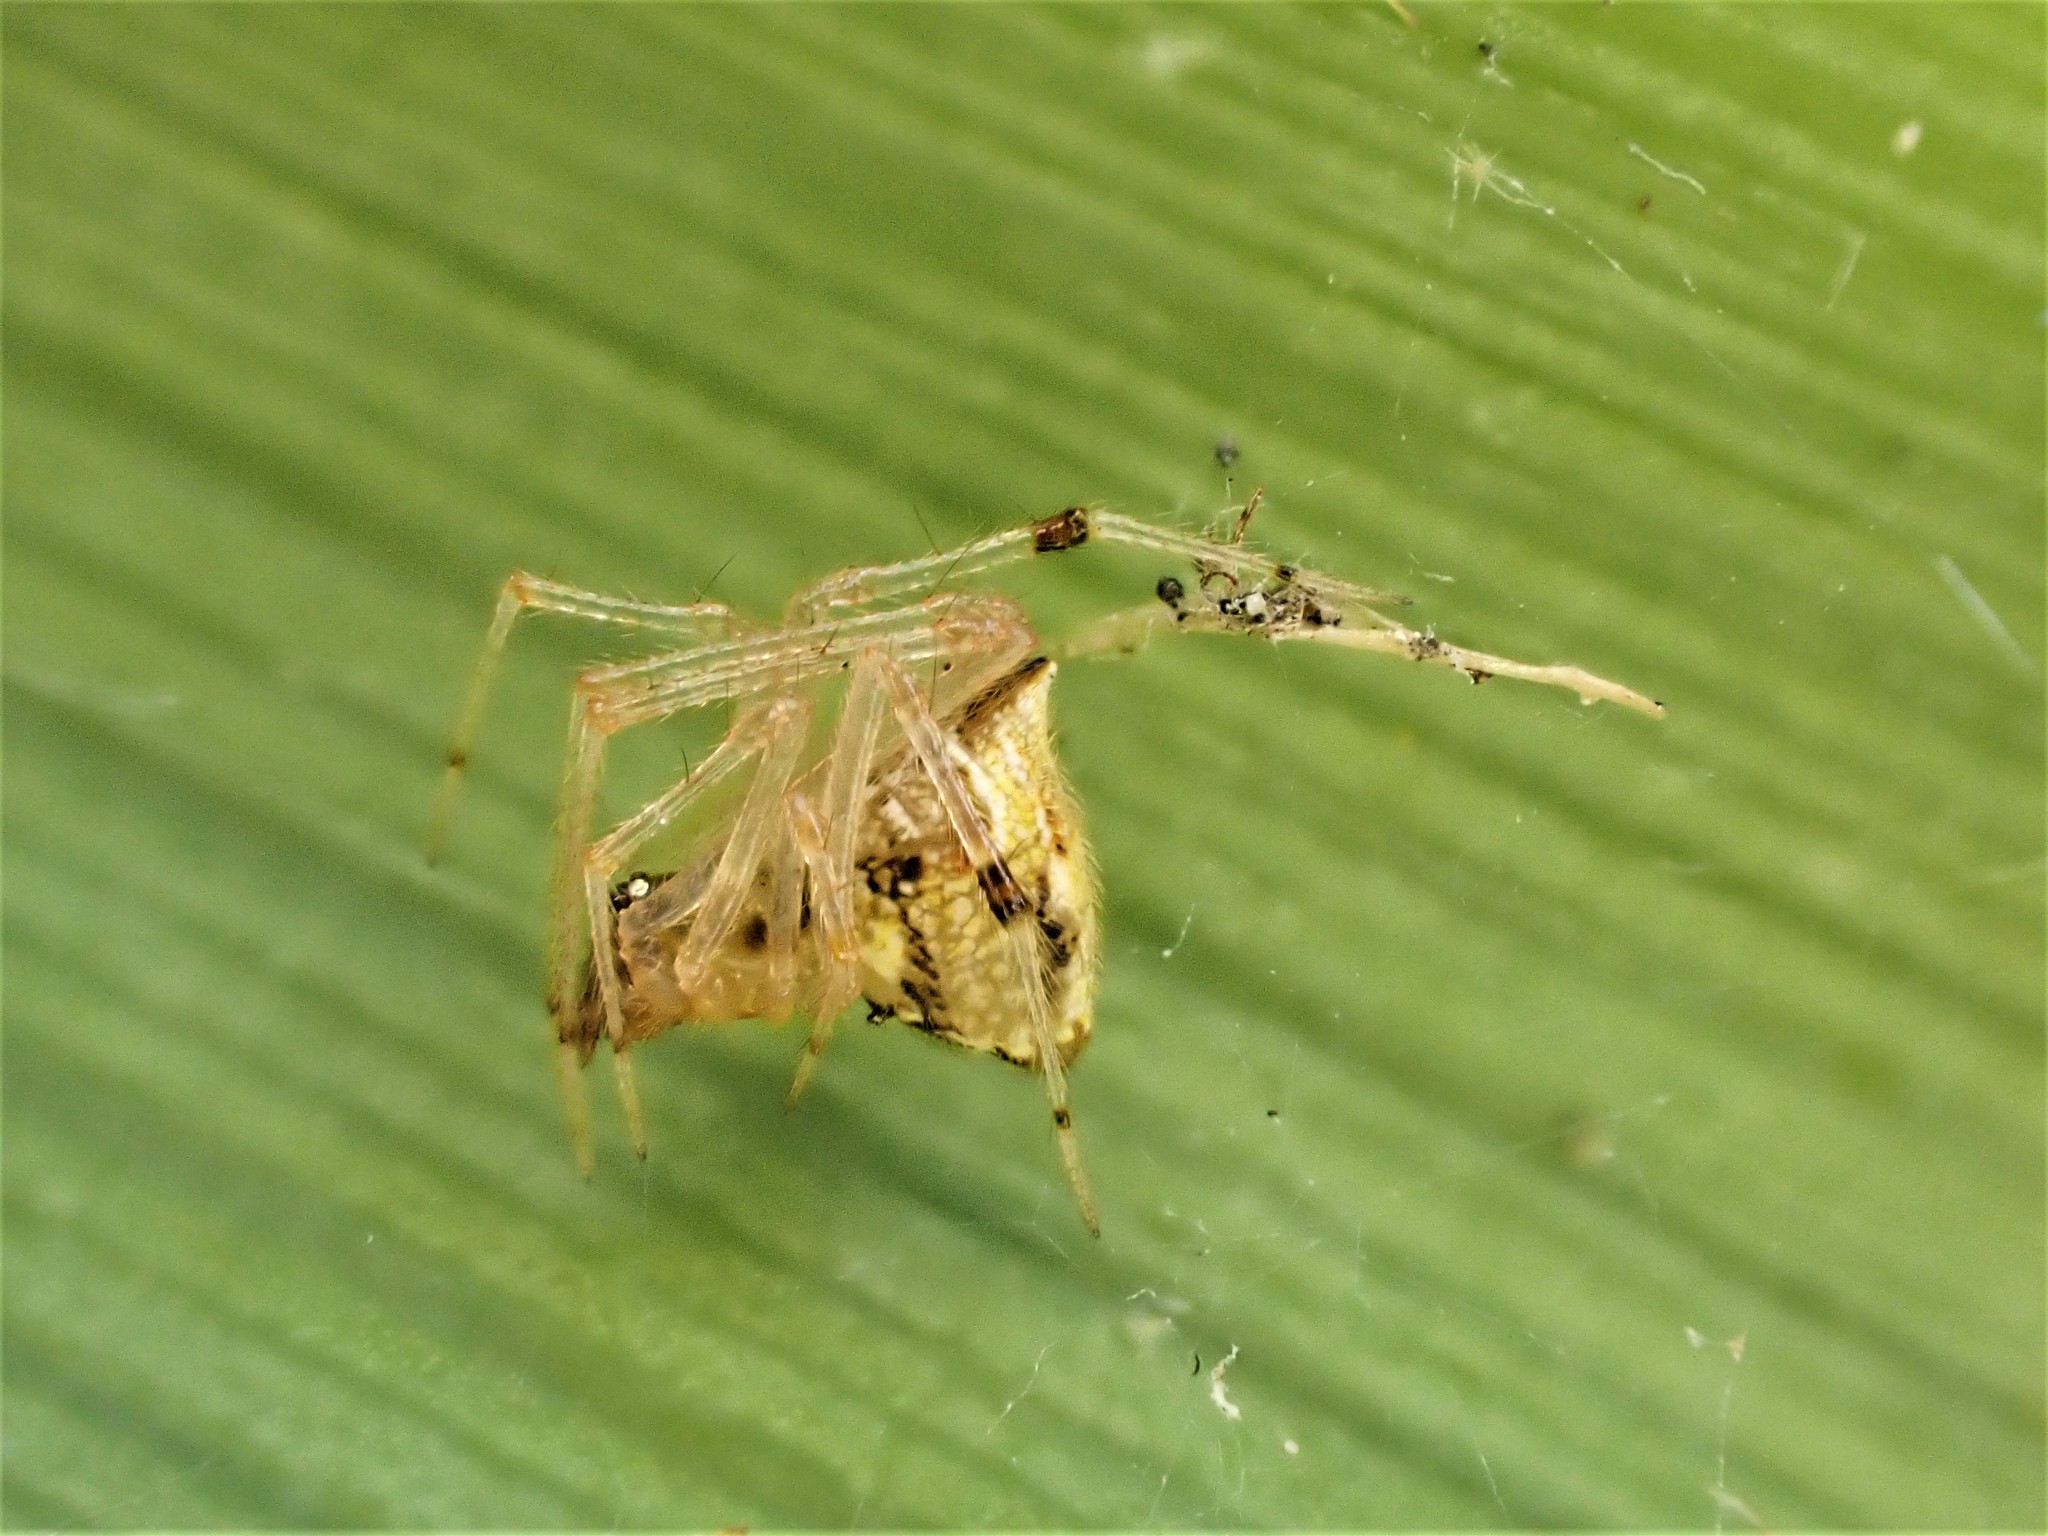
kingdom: Animalia
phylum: Arthropoda
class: Arachnida
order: Araneae
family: Theridiidae
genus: Cryptachaea
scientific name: Cryptachaea meraukensis
